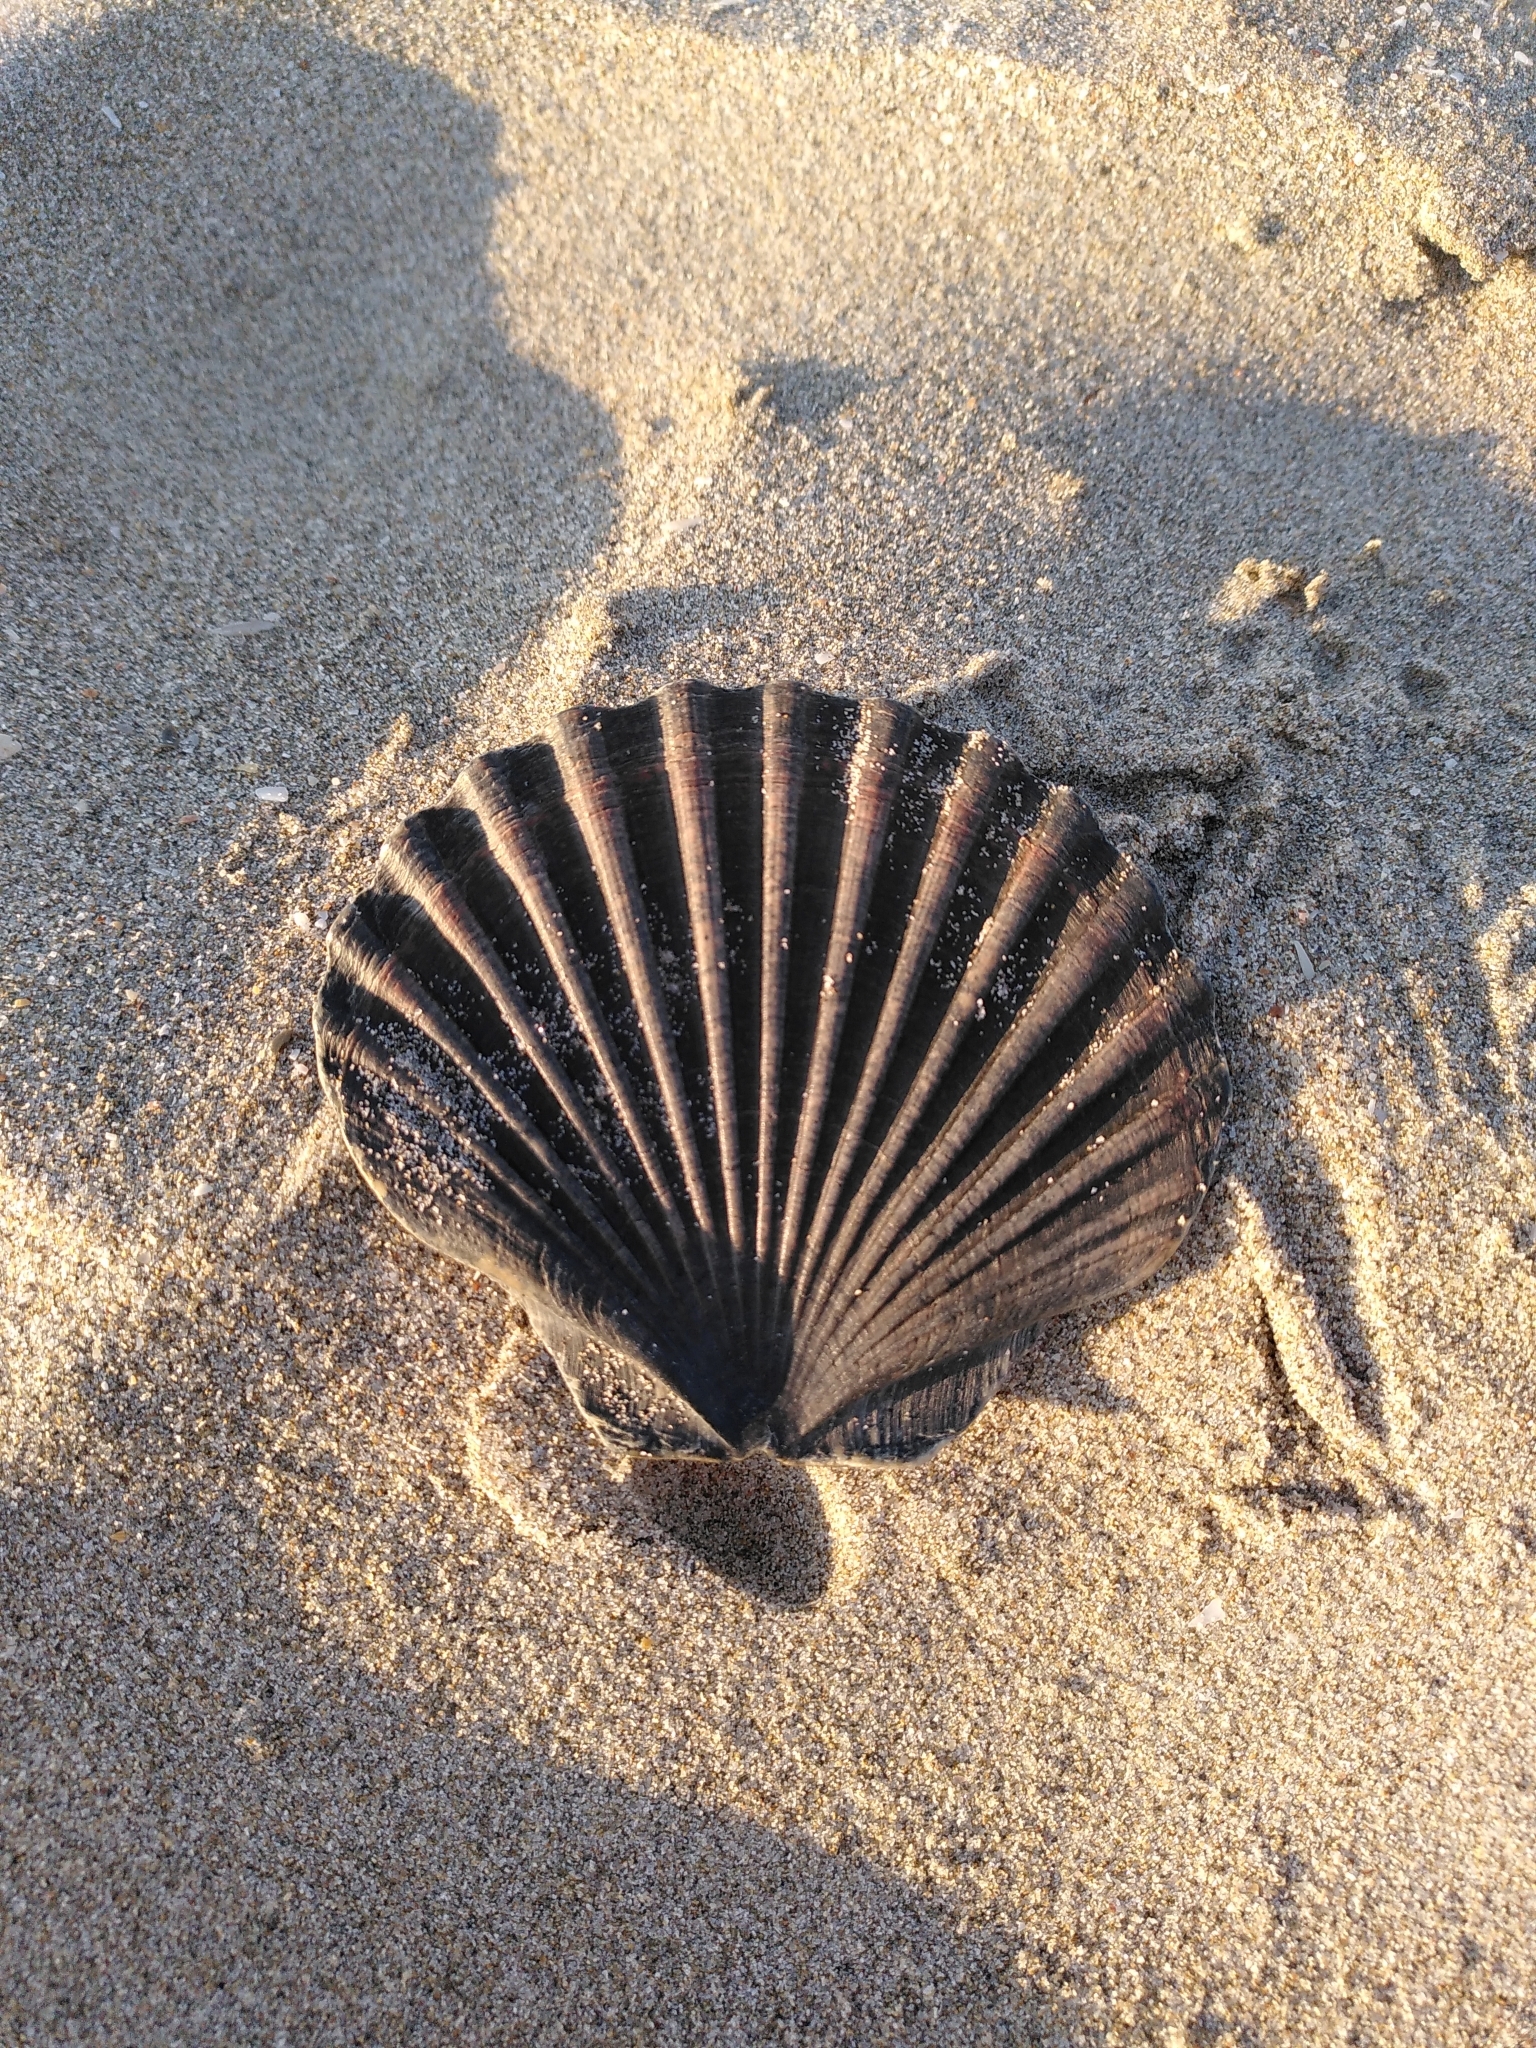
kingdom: Animalia
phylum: Mollusca
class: Bivalvia
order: Pectinida
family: Pectinidae
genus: Pecten
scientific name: Pecten jacobaeus
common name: St.james's scallop
